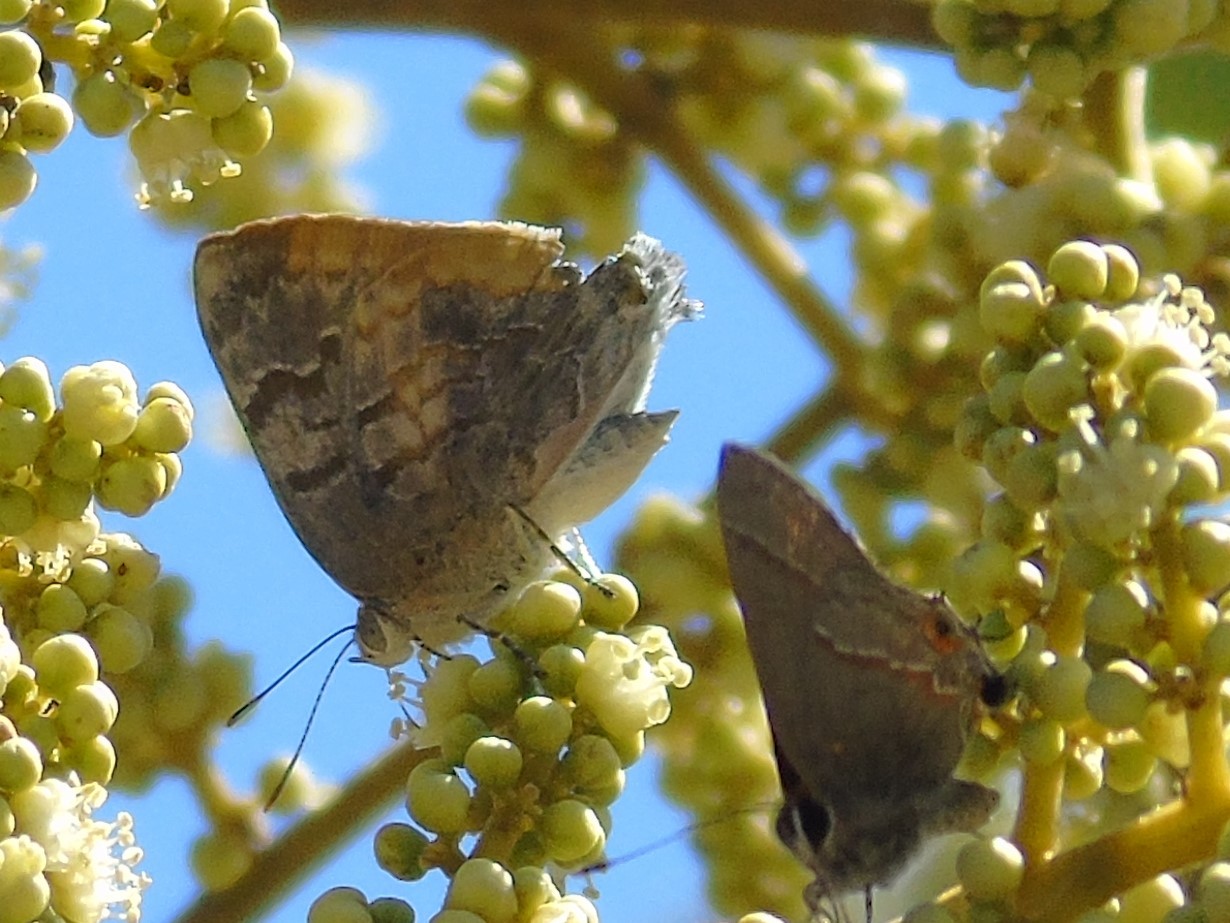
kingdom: Animalia
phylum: Arthropoda
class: Insecta
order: Lepidoptera
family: Lycaenidae
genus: Rekoa
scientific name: Rekoa palegon
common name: Gold-bordered hairstreak
